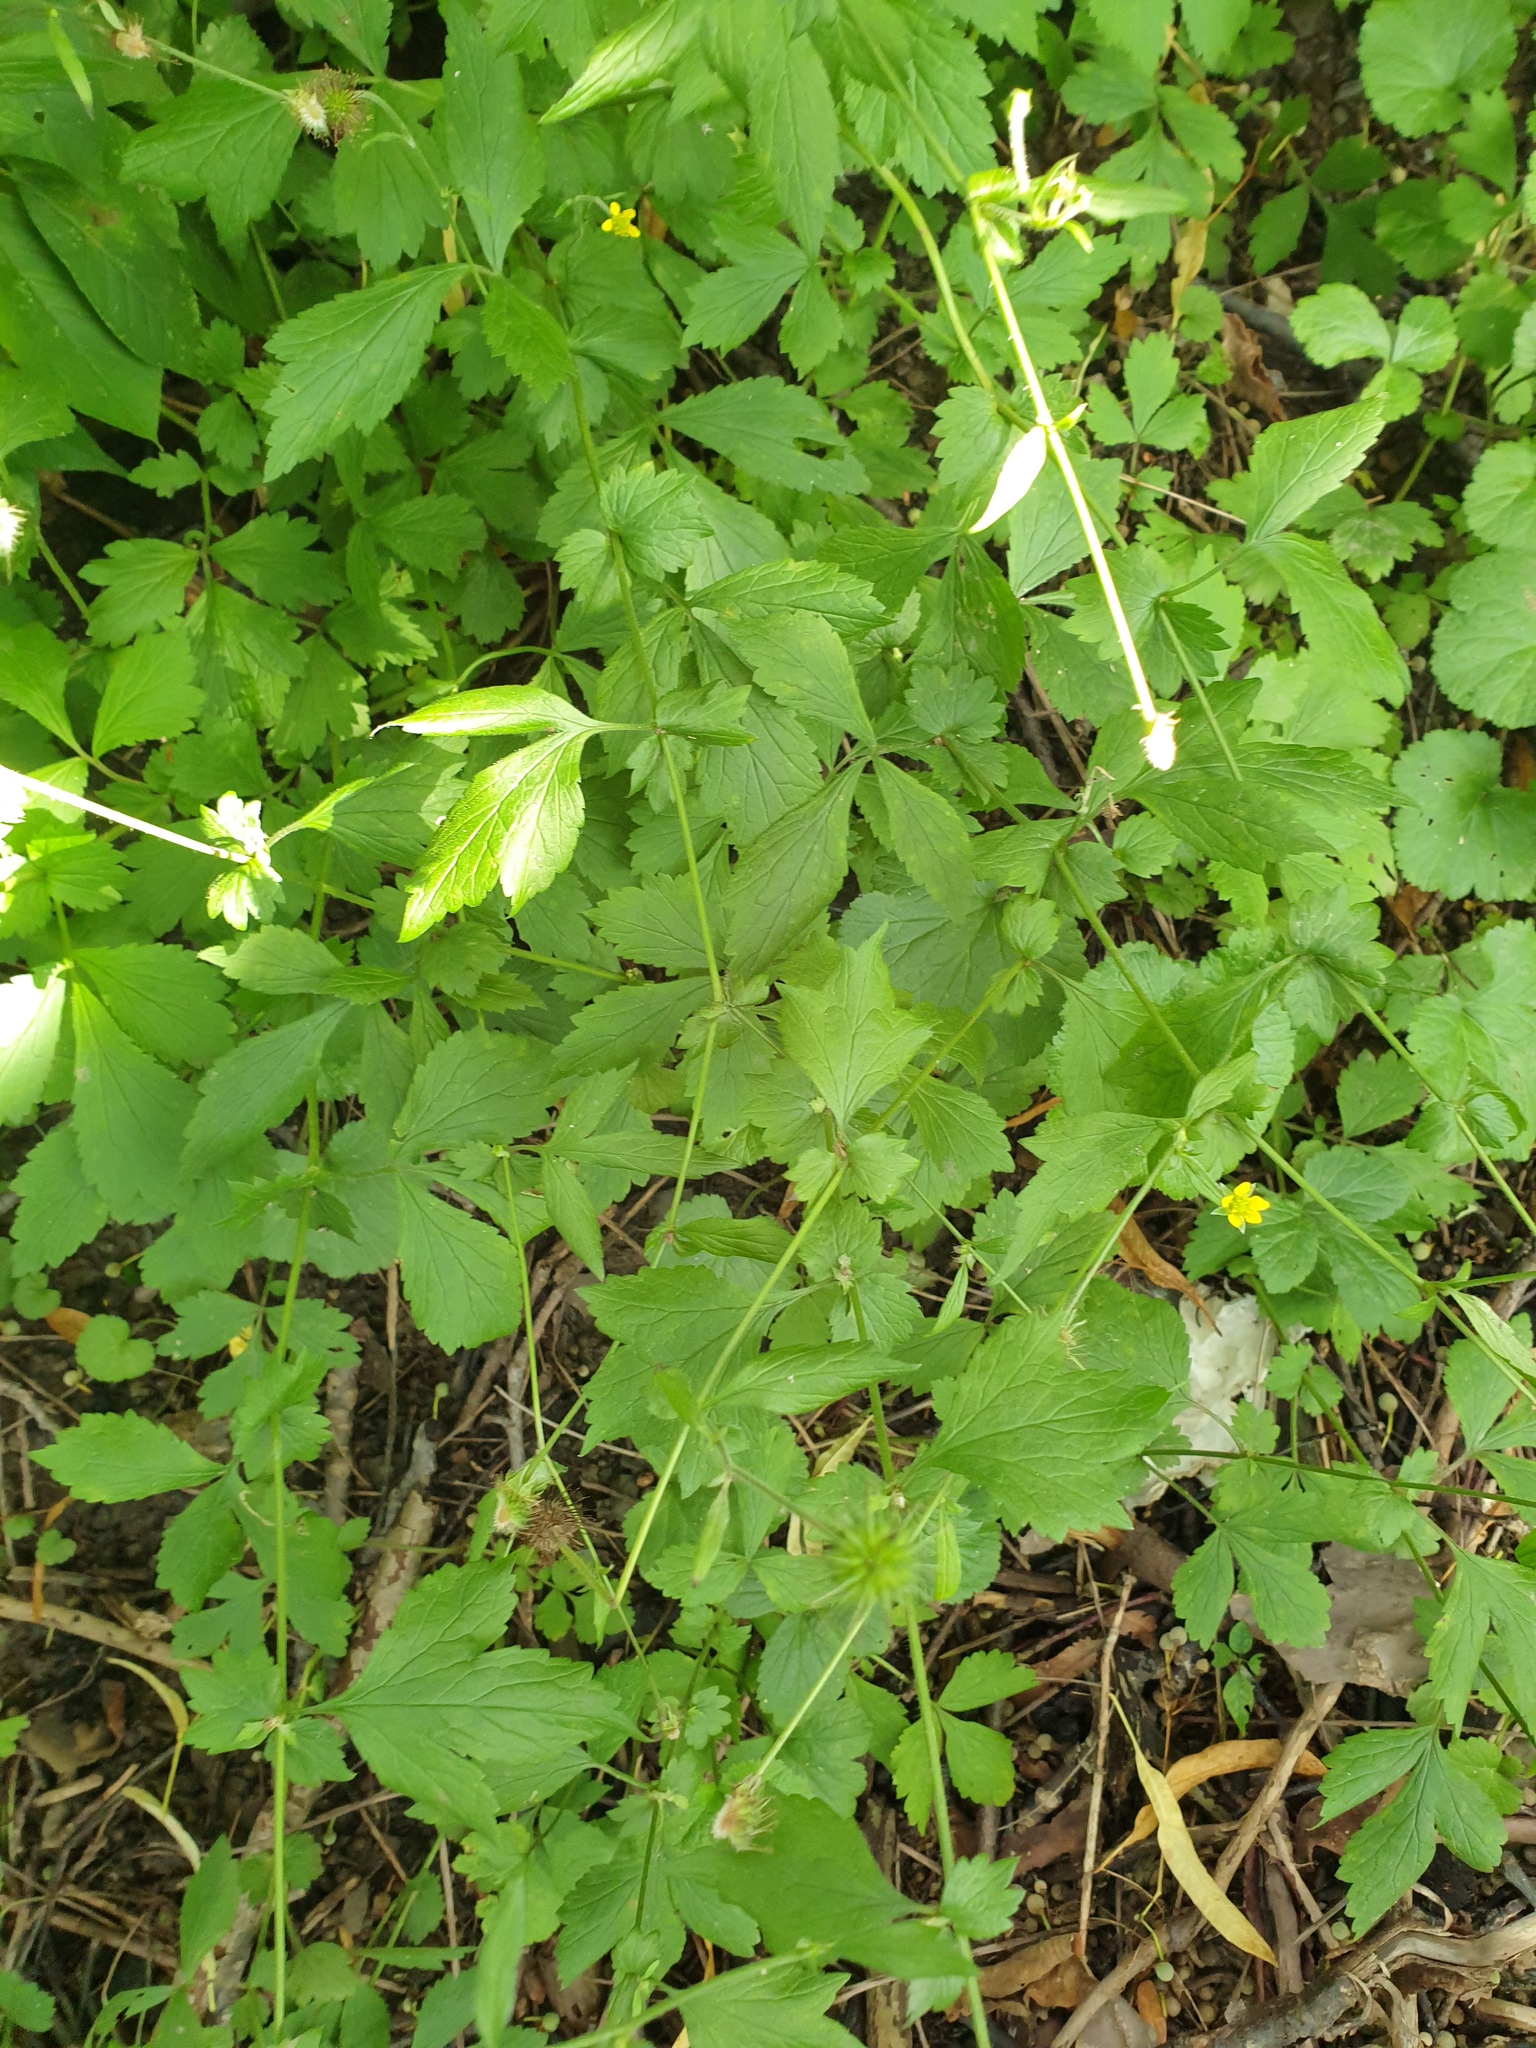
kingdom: Plantae
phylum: Tracheophyta
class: Magnoliopsida
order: Rosales
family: Rosaceae
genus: Geum
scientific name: Geum urbanum
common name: Wood avens
